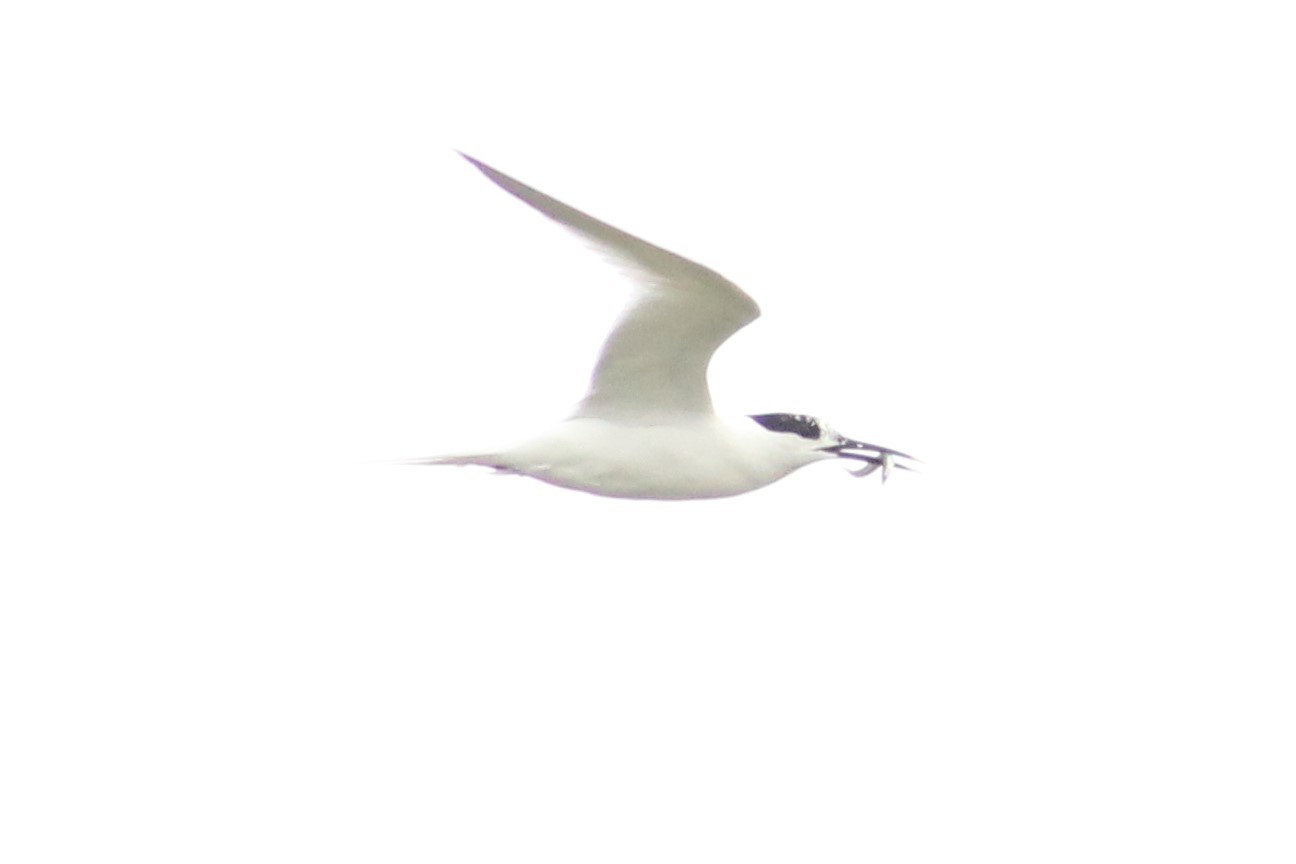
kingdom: Animalia
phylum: Chordata
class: Aves
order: Charadriiformes
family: Laridae
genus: Thalasseus
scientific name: Thalasseus sandvicensis
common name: Sandwich tern
